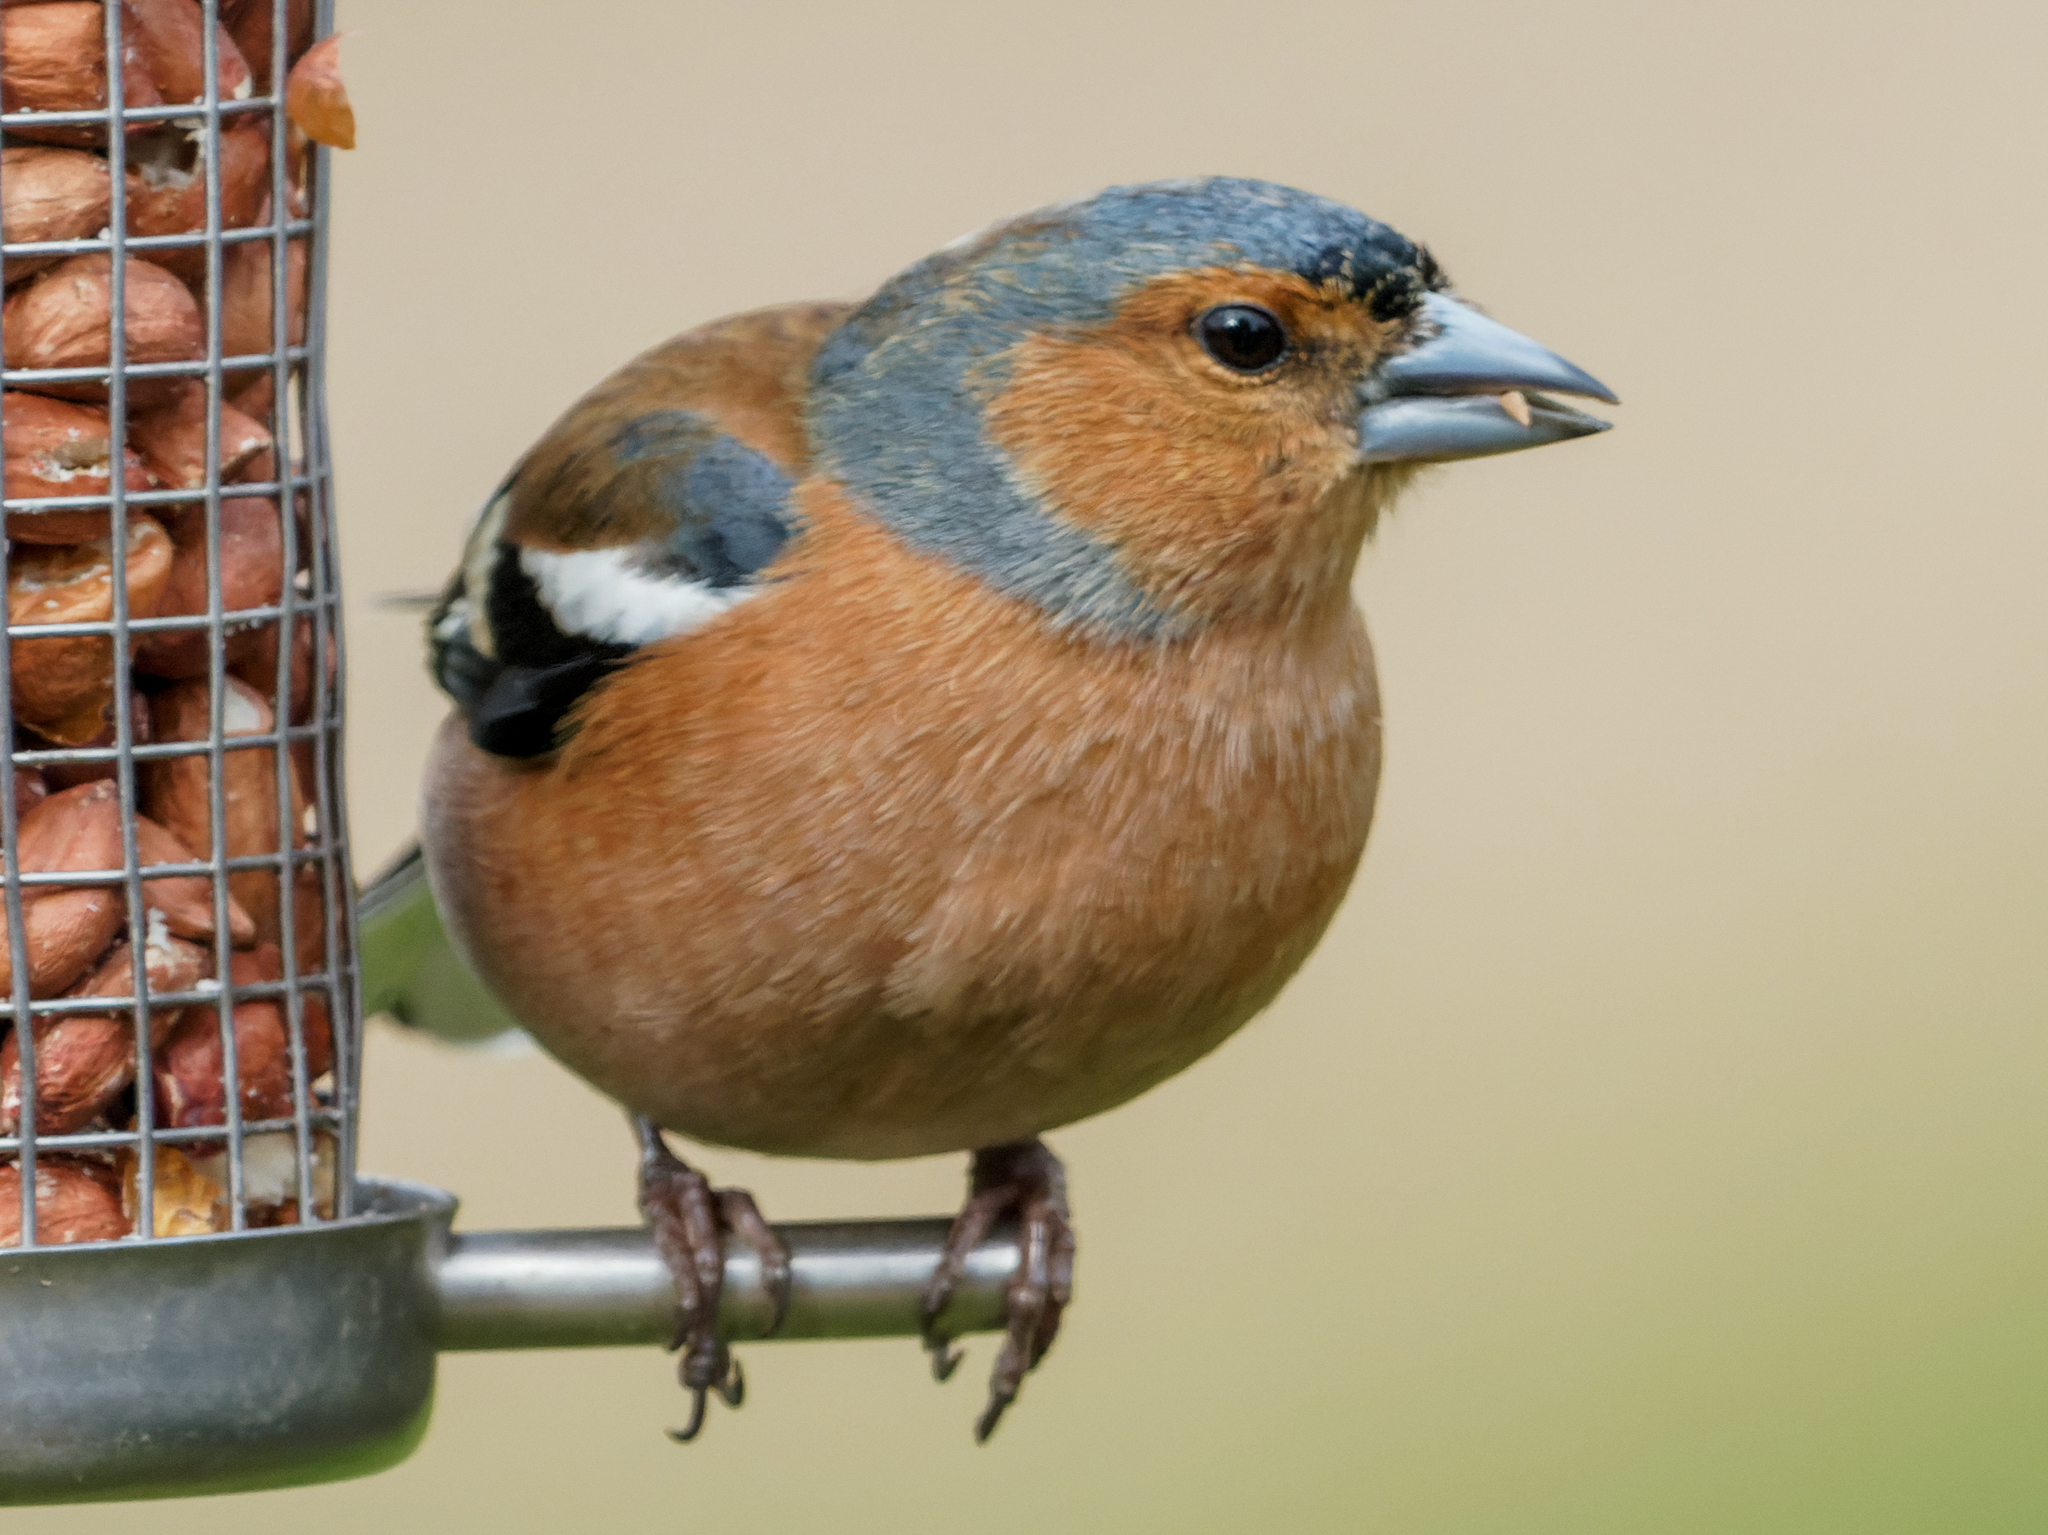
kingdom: Animalia
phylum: Chordata
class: Aves
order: Passeriformes
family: Fringillidae
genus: Fringilla
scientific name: Fringilla coelebs
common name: Common chaffinch
